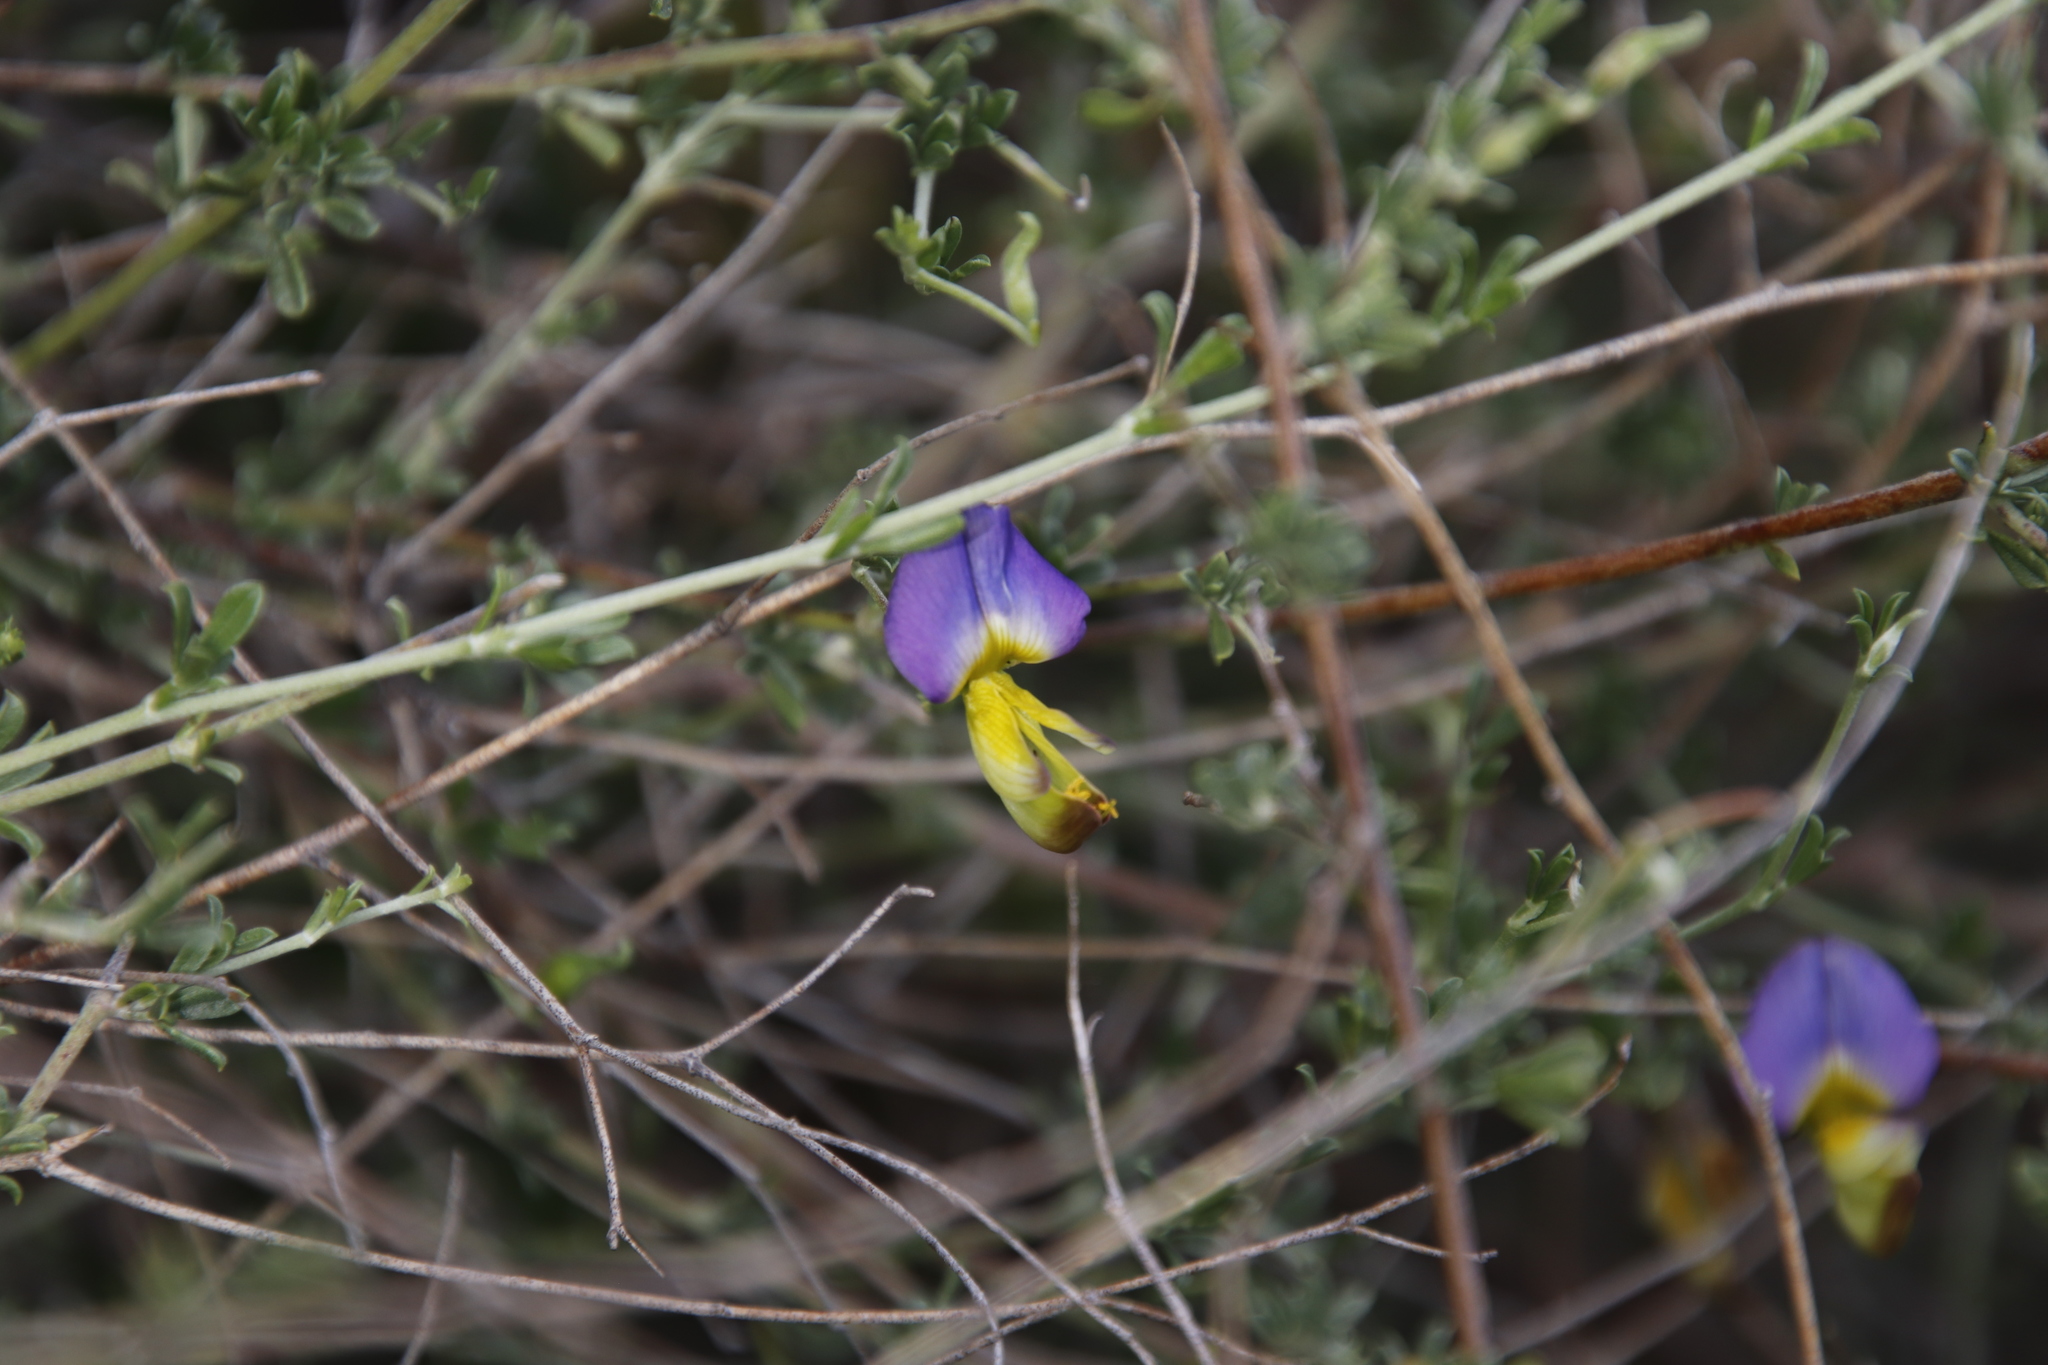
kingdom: Plantae
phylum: Tracheophyta
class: Magnoliopsida
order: Fabales
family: Fabaceae
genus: Lotononis
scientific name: Lotononis sericophylla
